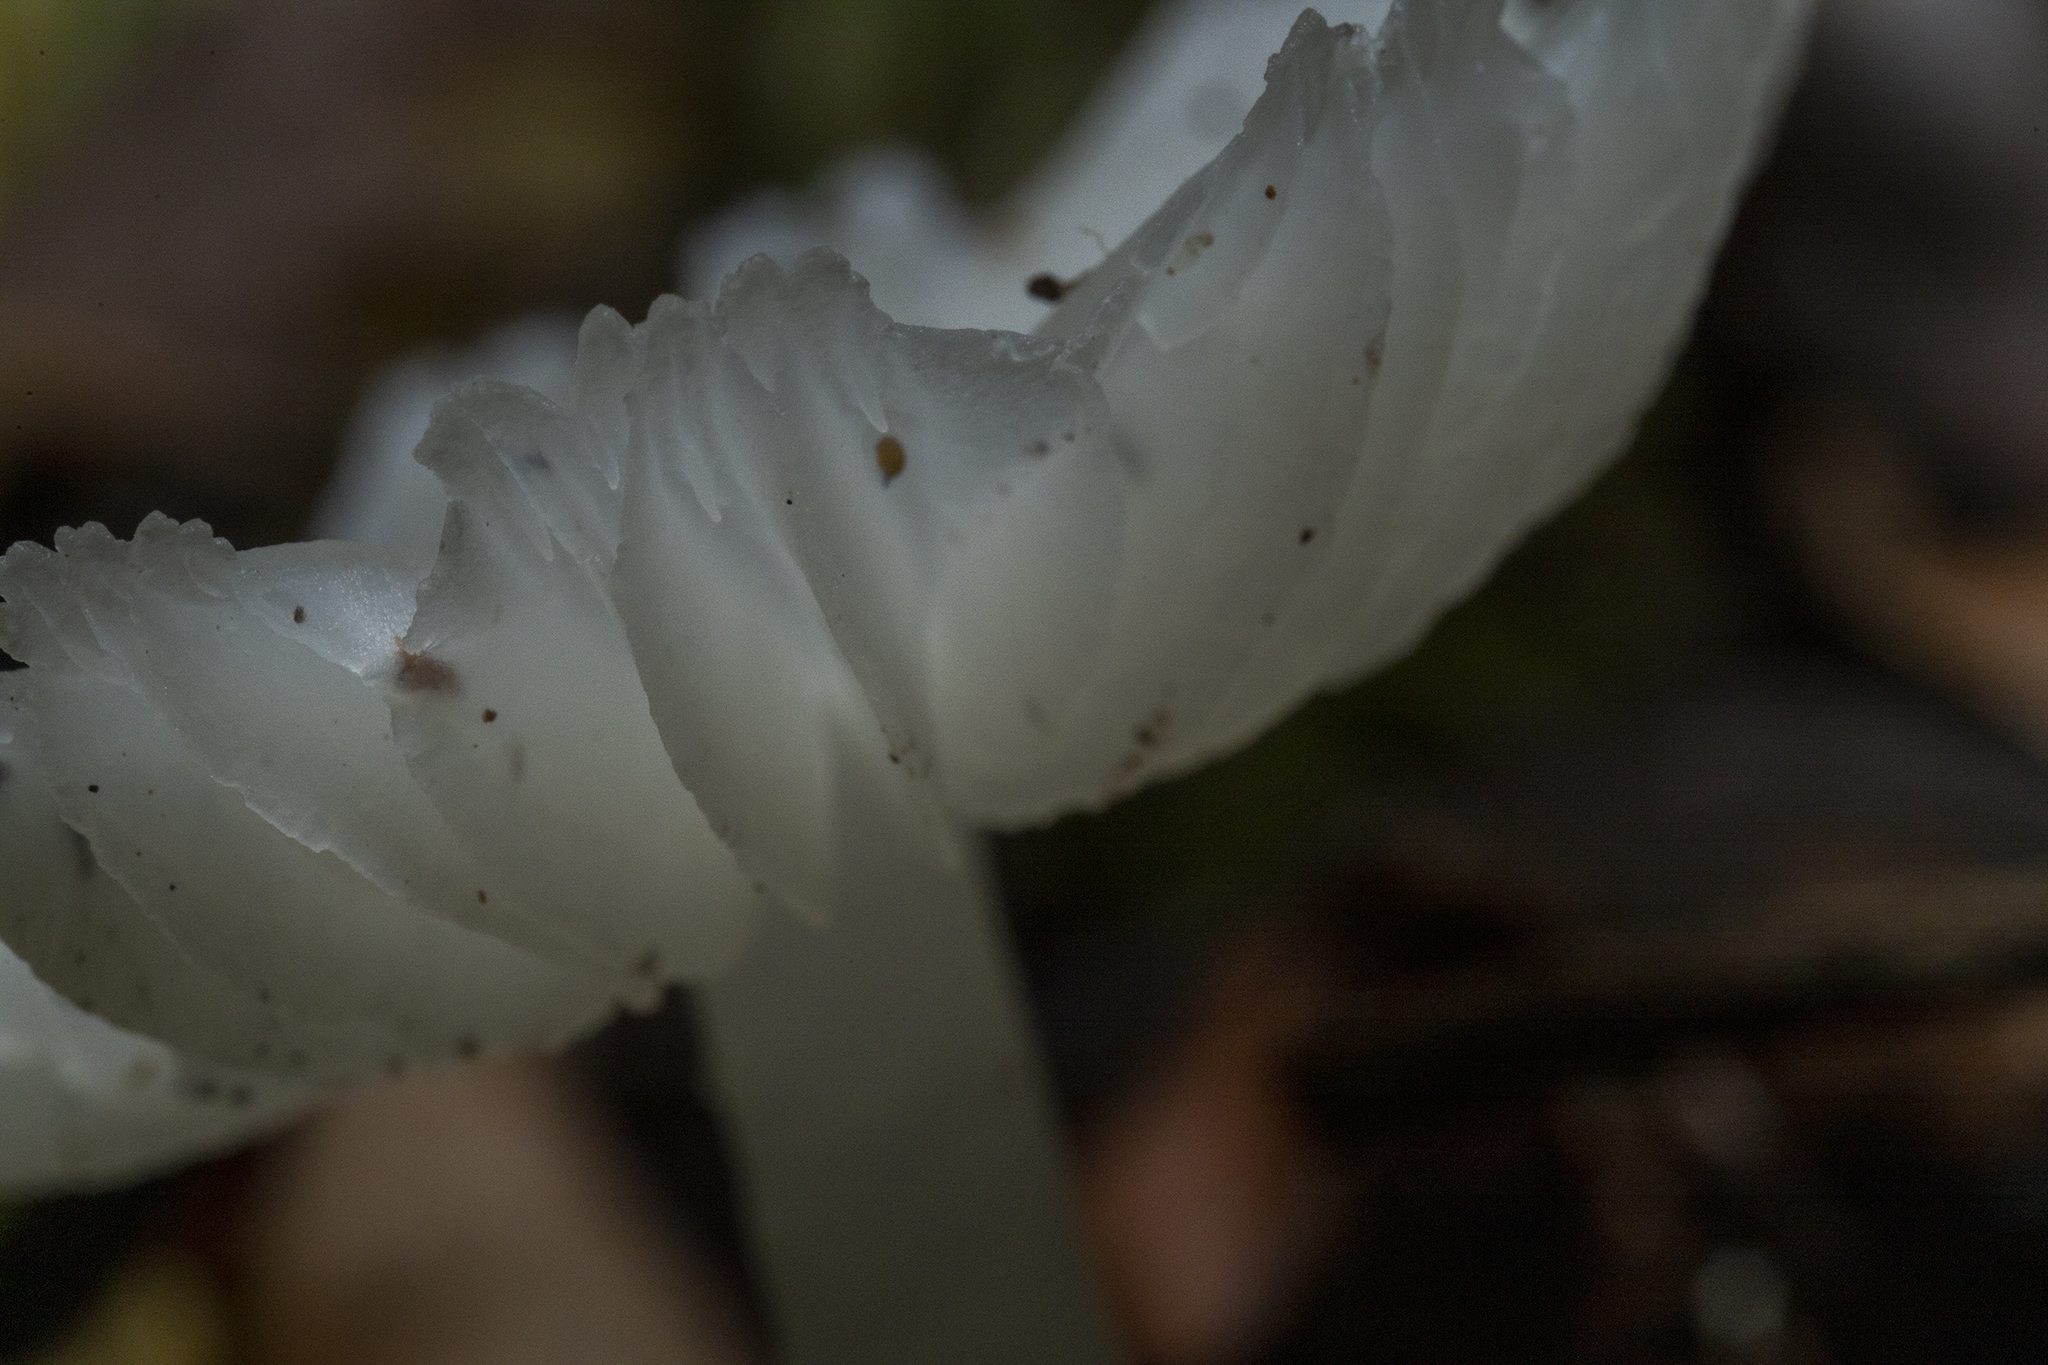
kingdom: Fungi
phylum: Basidiomycota
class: Agaricomycetes
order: Agaricales
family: Hygrophoraceae
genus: Humidicutis
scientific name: Humidicutis mavis
